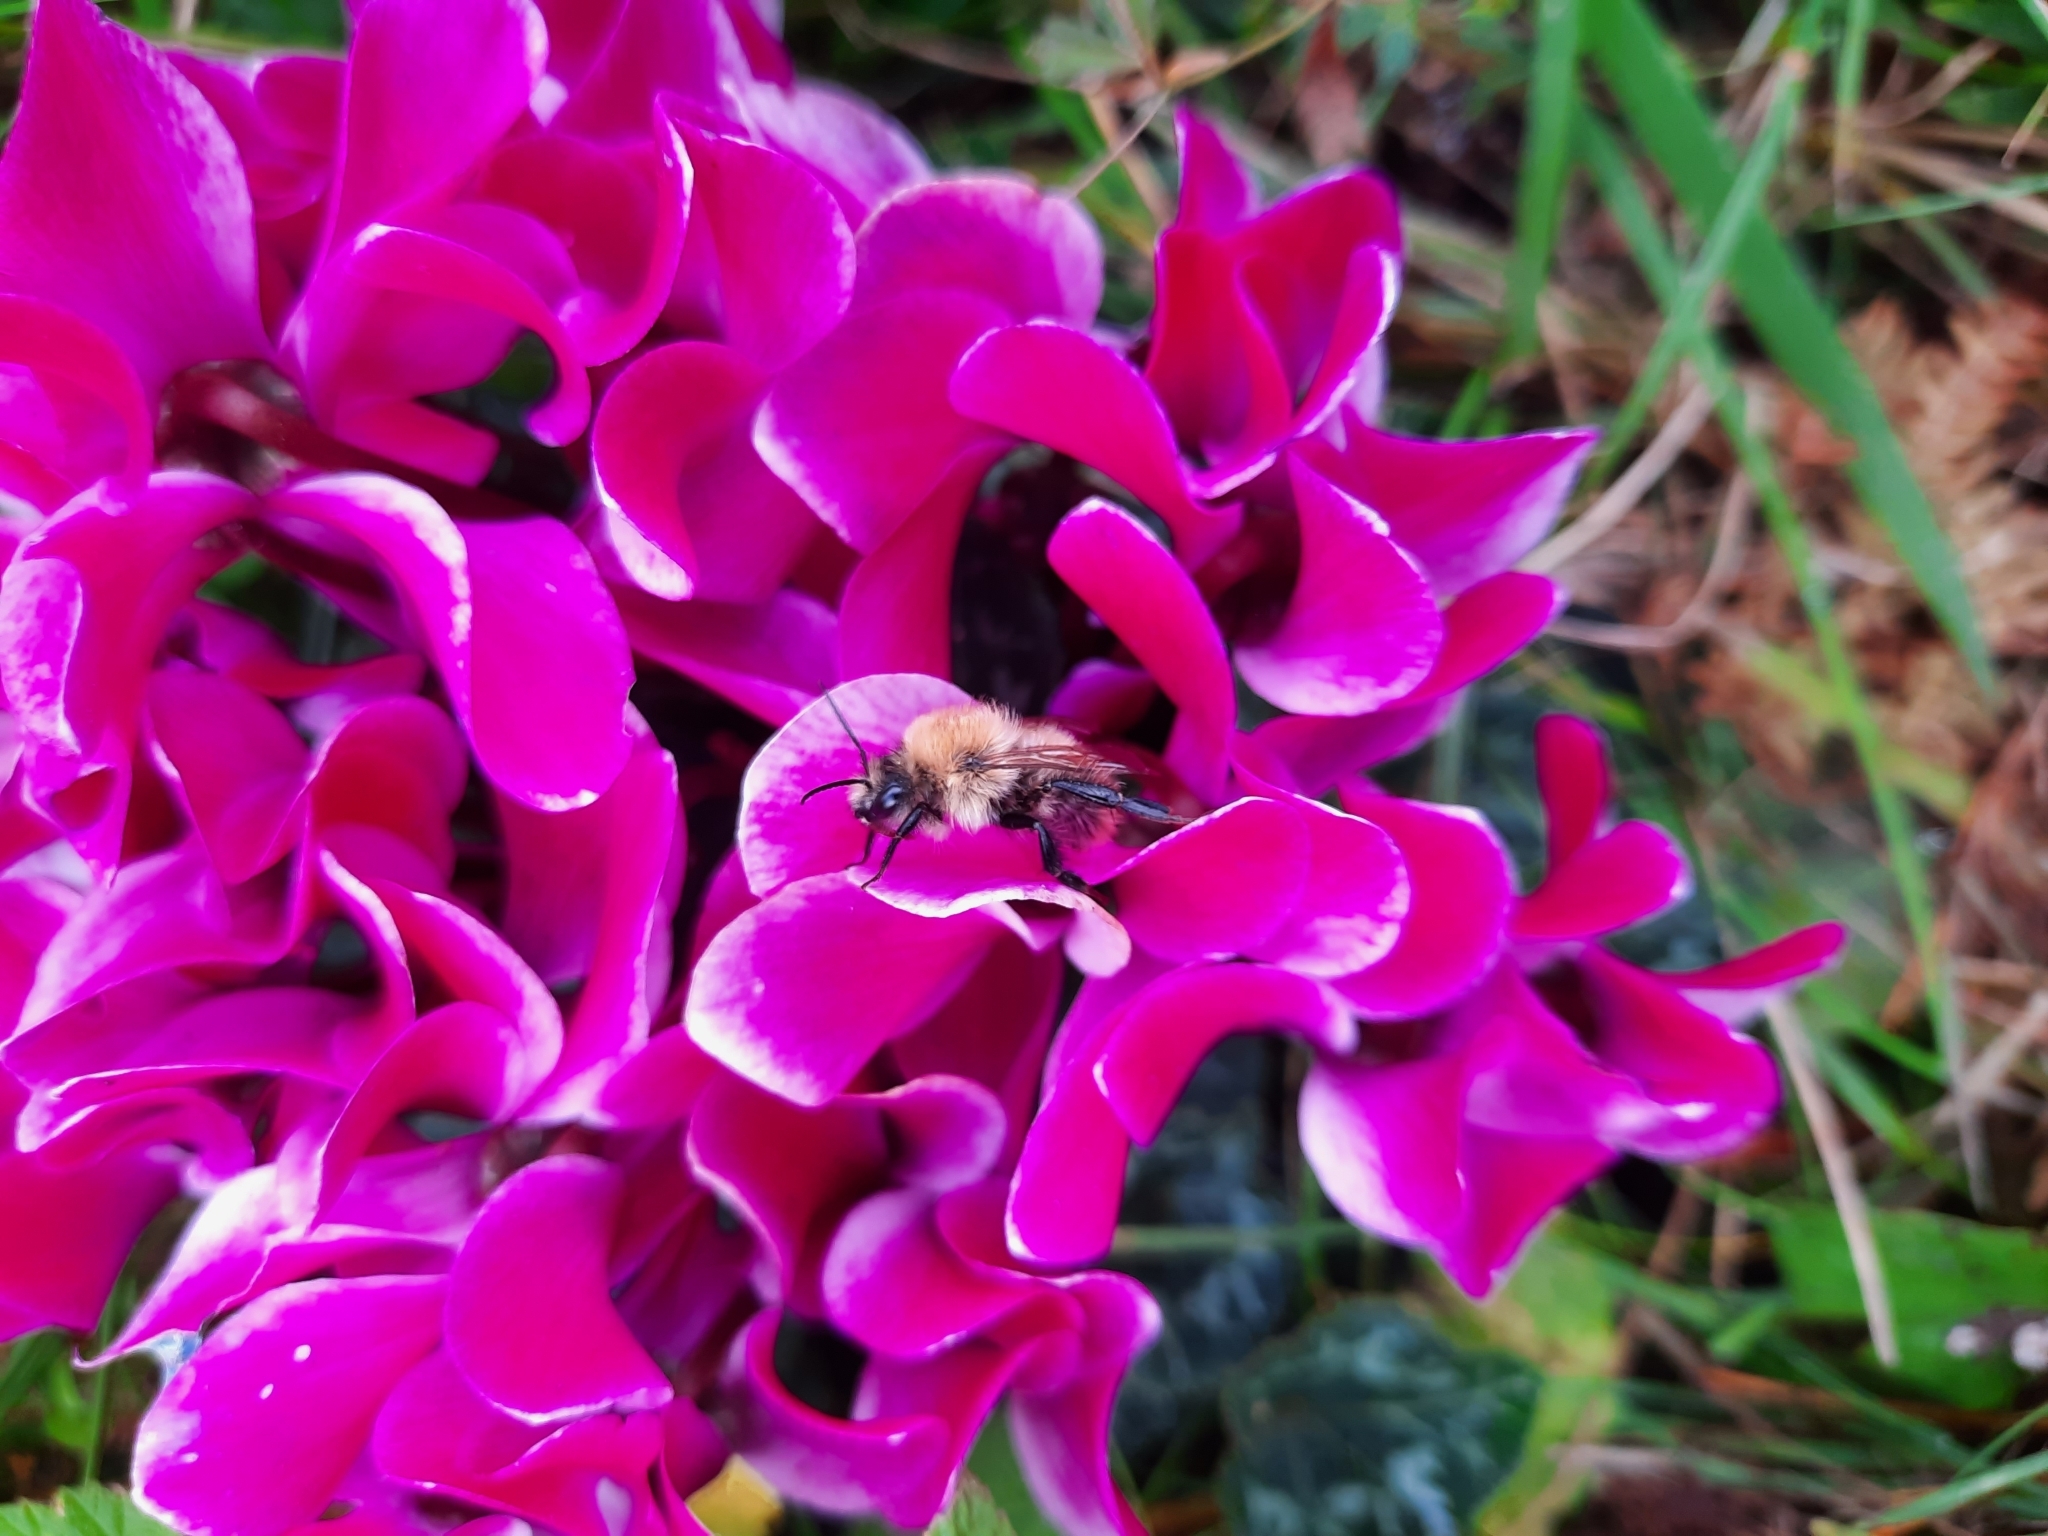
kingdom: Animalia
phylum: Arthropoda
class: Insecta
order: Hymenoptera
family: Apidae
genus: Bombus
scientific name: Bombus pascuorum
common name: Common carder bee
